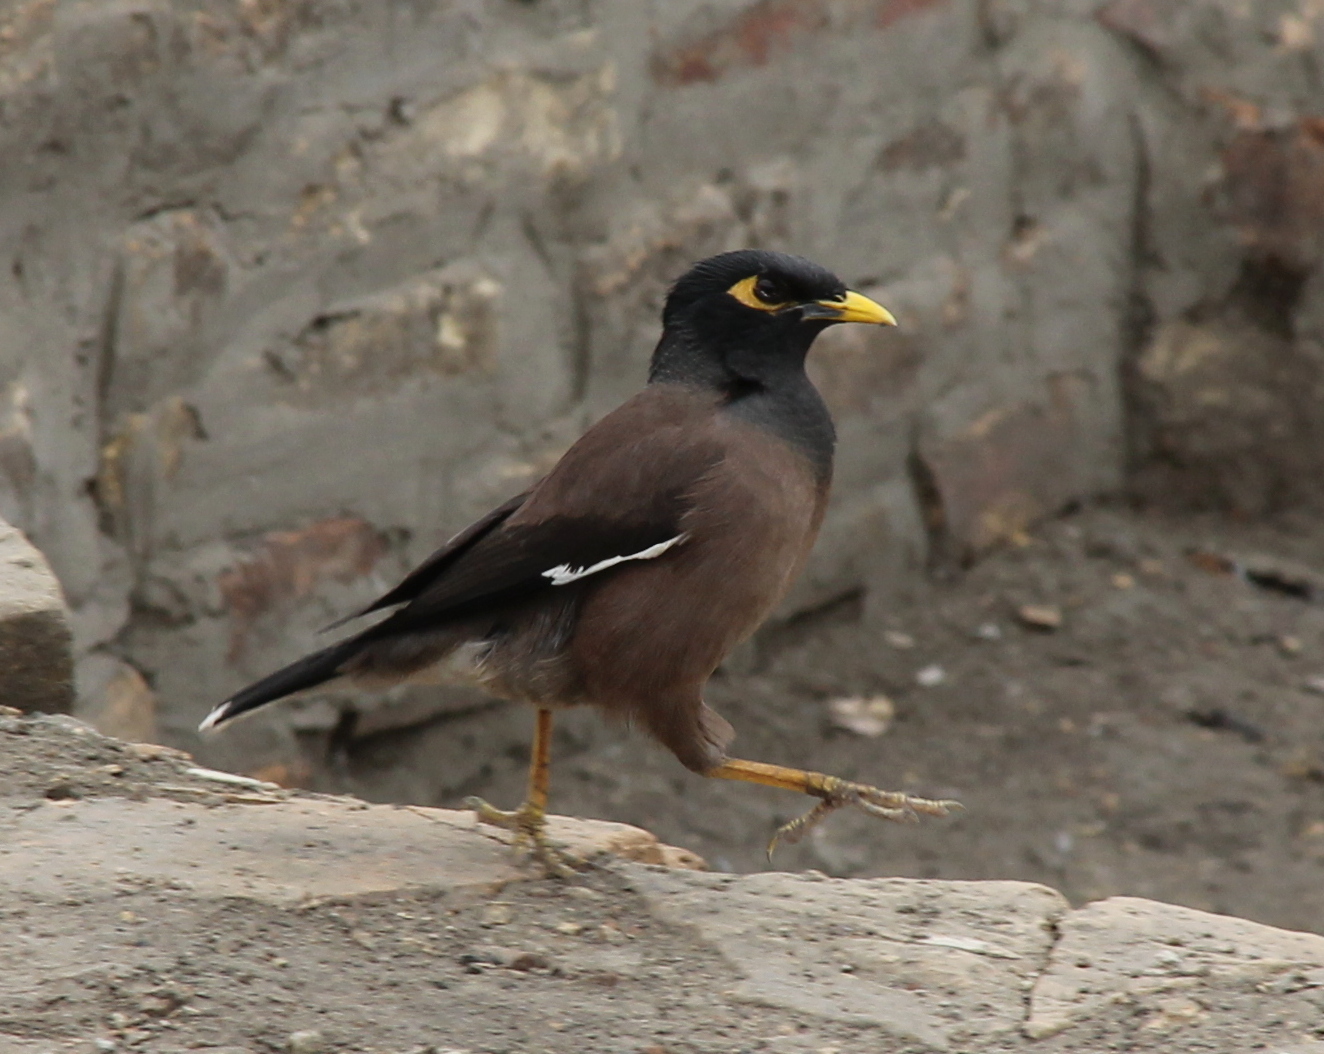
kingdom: Animalia
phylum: Chordata
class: Aves
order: Passeriformes
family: Sturnidae
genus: Acridotheres
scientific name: Acridotheres tristis
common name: Common myna
